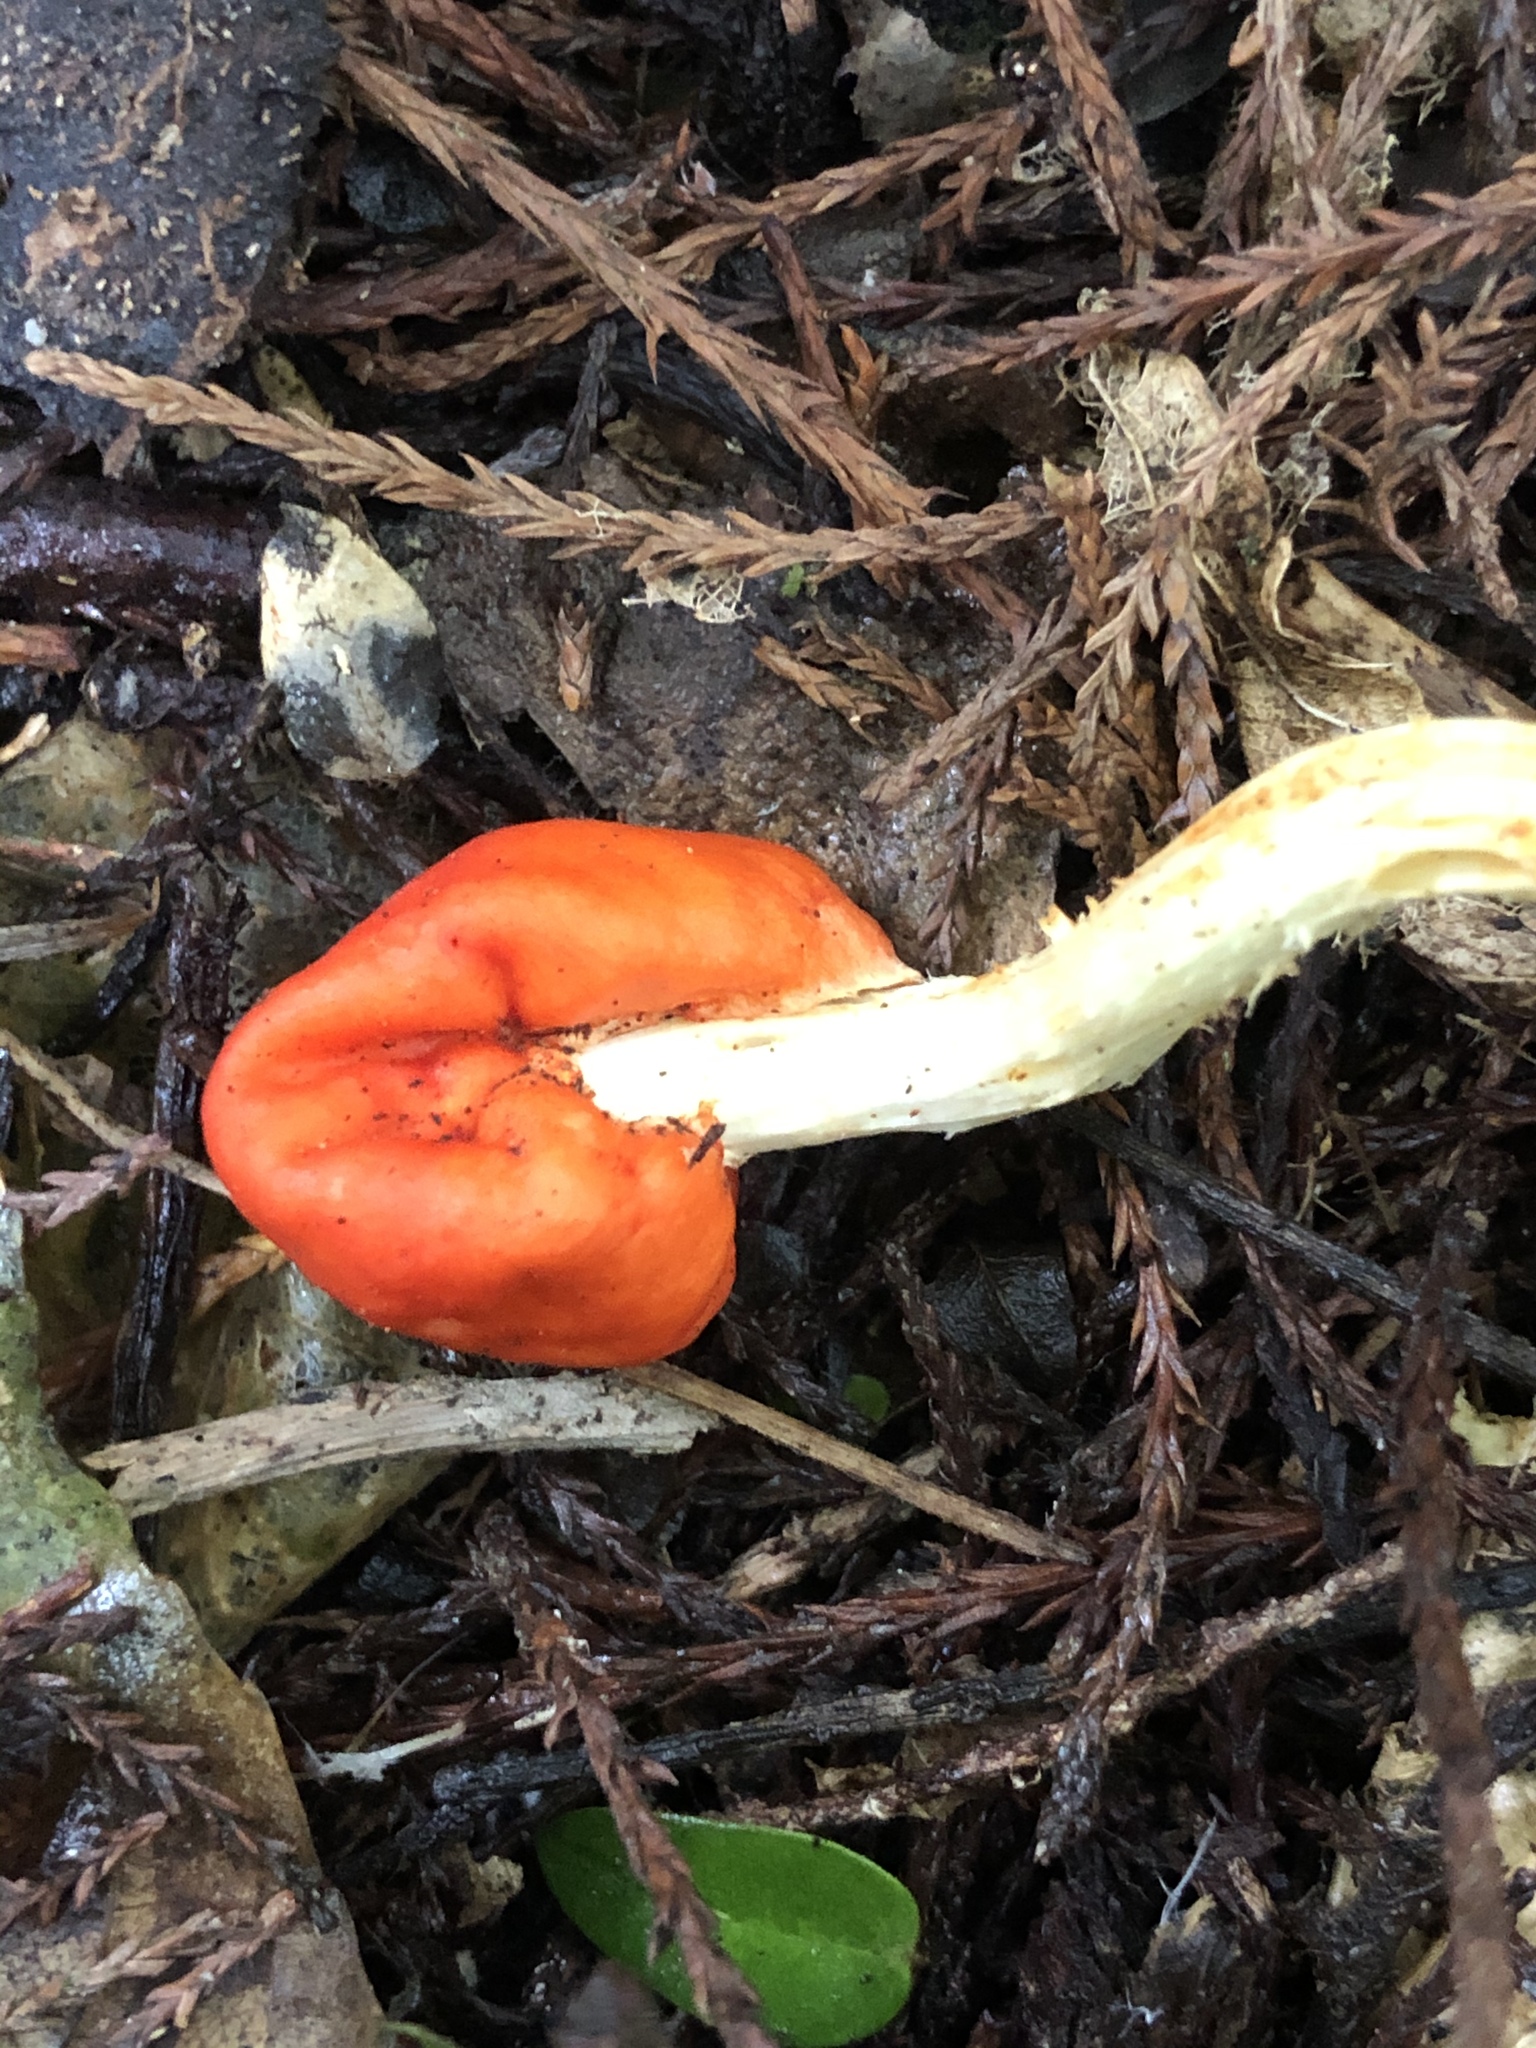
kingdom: Fungi
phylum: Basidiomycota
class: Agaricomycetes
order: Agaricales
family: Strophariaceae
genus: Leratiomyces
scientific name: Leratiomyces erythrocephalus
